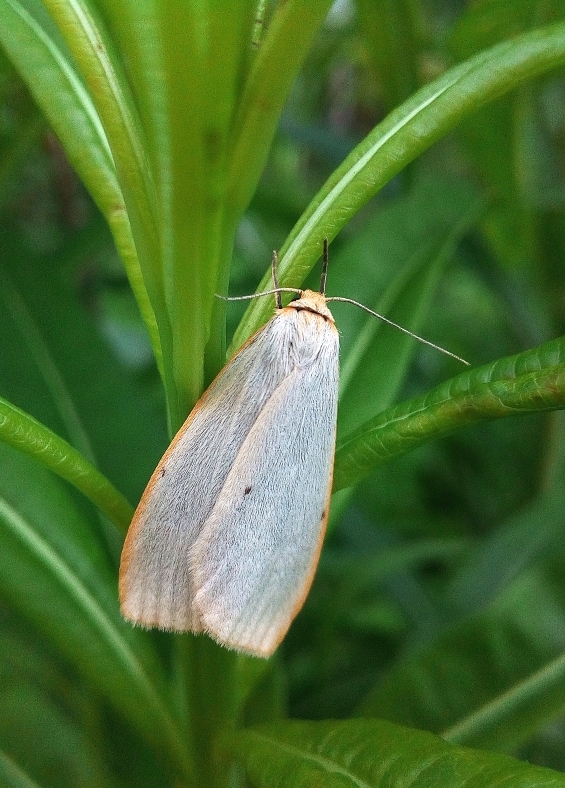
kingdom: Animalia
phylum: Arthropoda
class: Insecta
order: Lepidoptera
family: Erebidae
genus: Cybosia
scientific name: Cybosia mesomella
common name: Four-dotted footman
